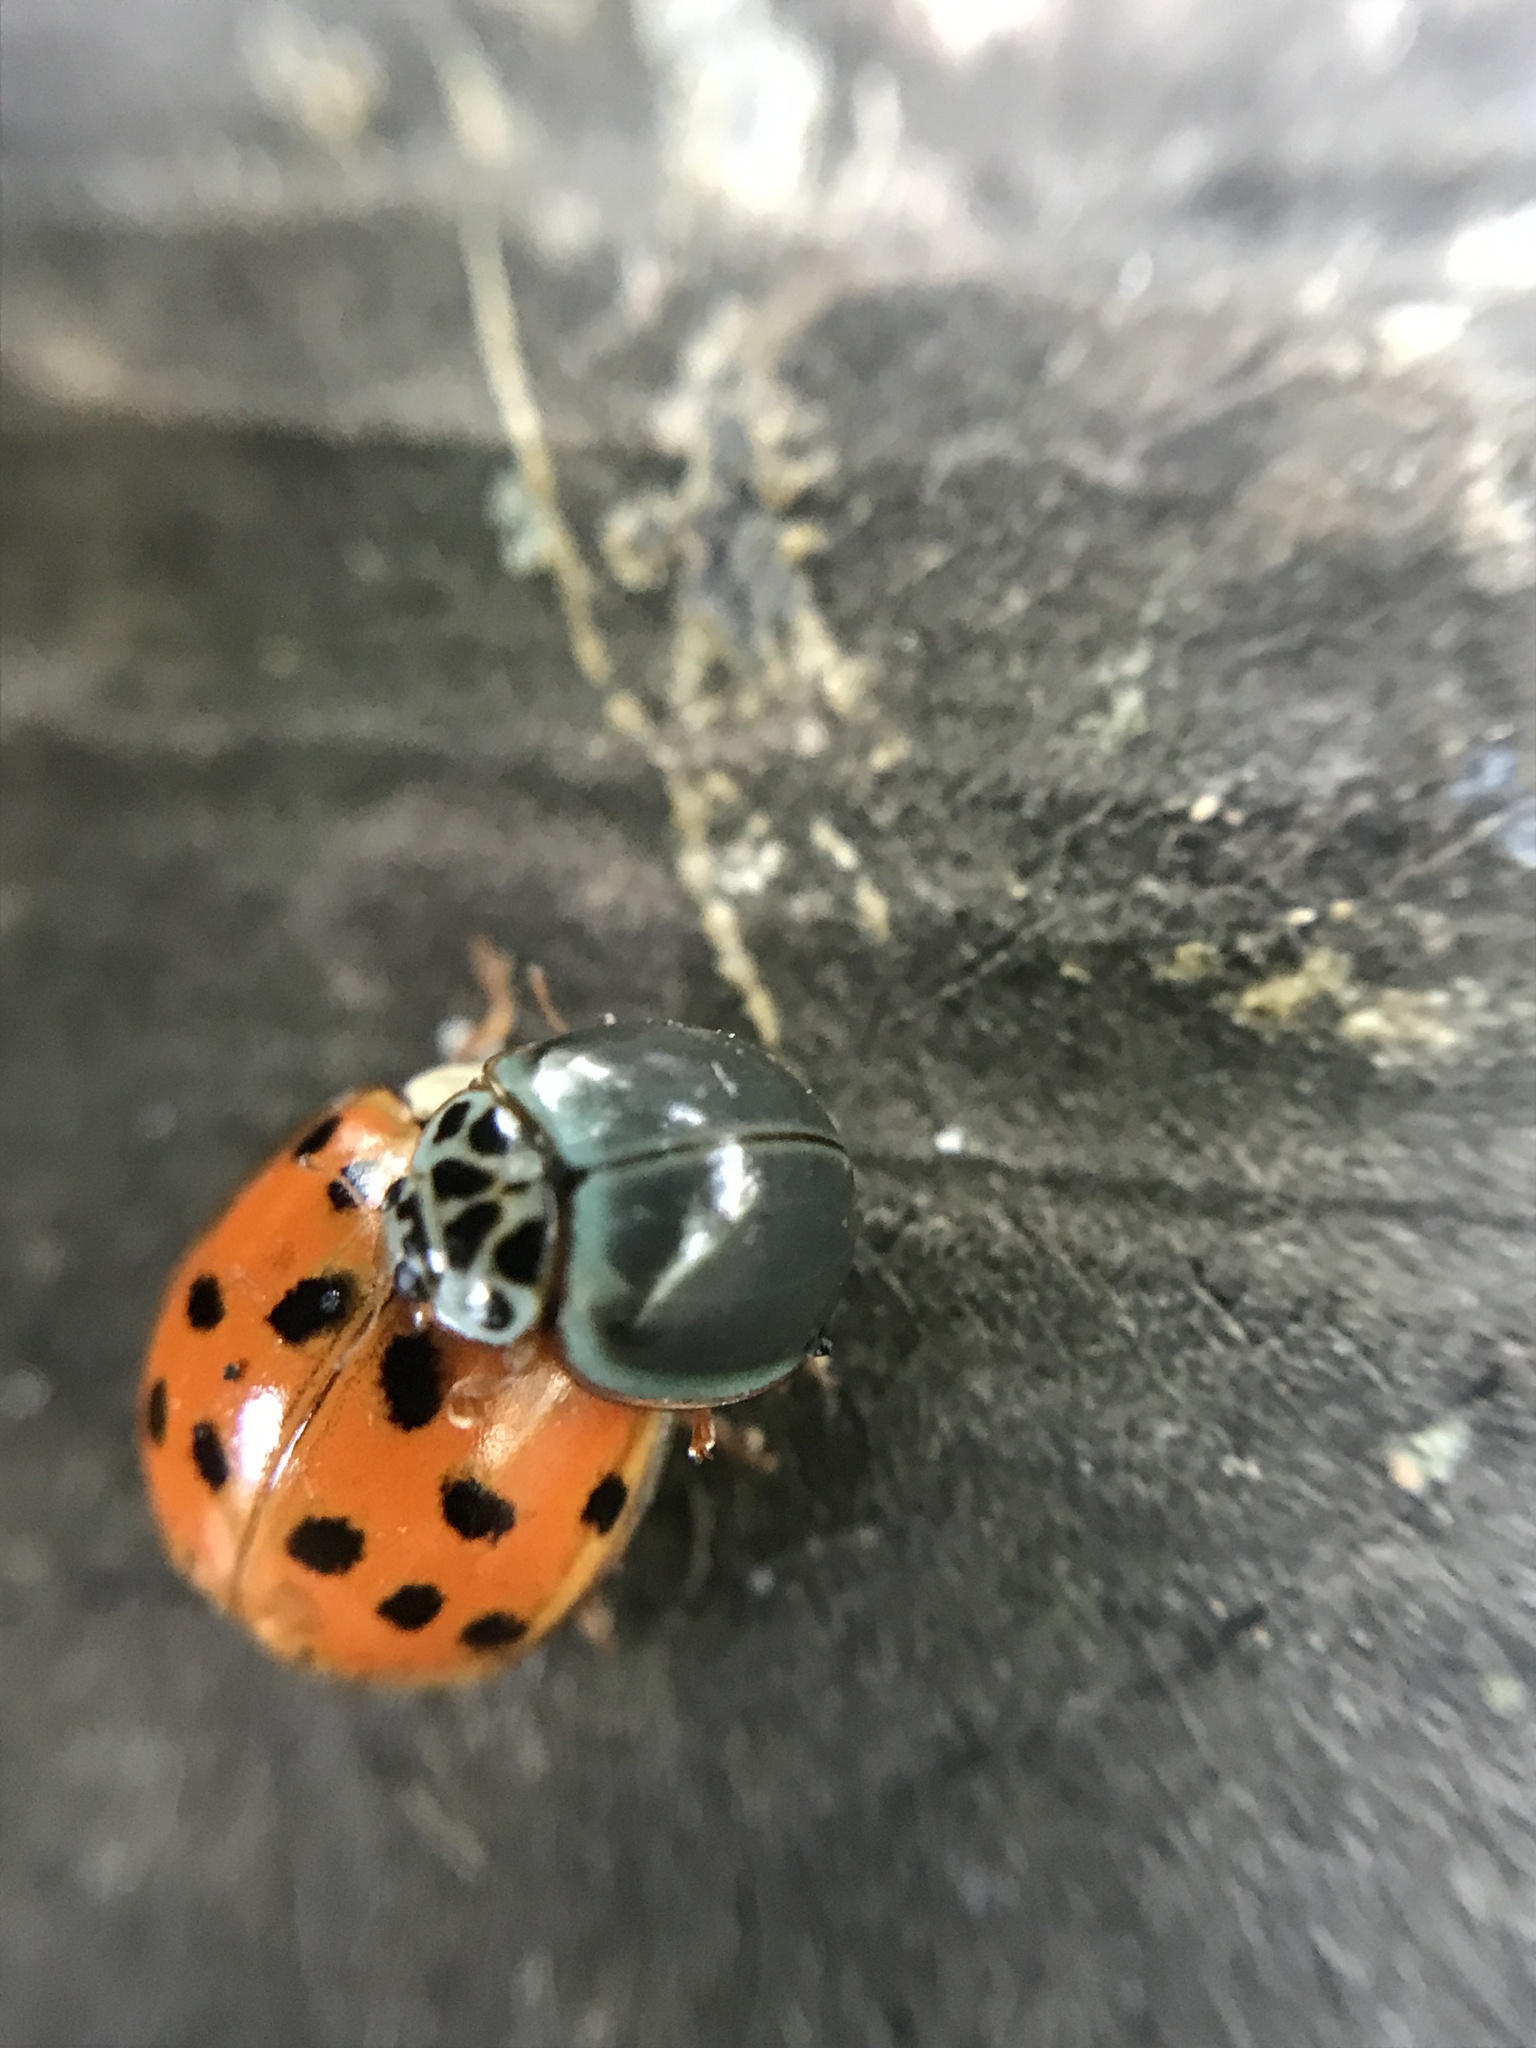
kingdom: Animalia
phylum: Arthropoda
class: Insecta
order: Coleoptera
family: Coccinellidae
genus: Harmonia
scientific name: Harmonia axyridis
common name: Harlequin ladybird
